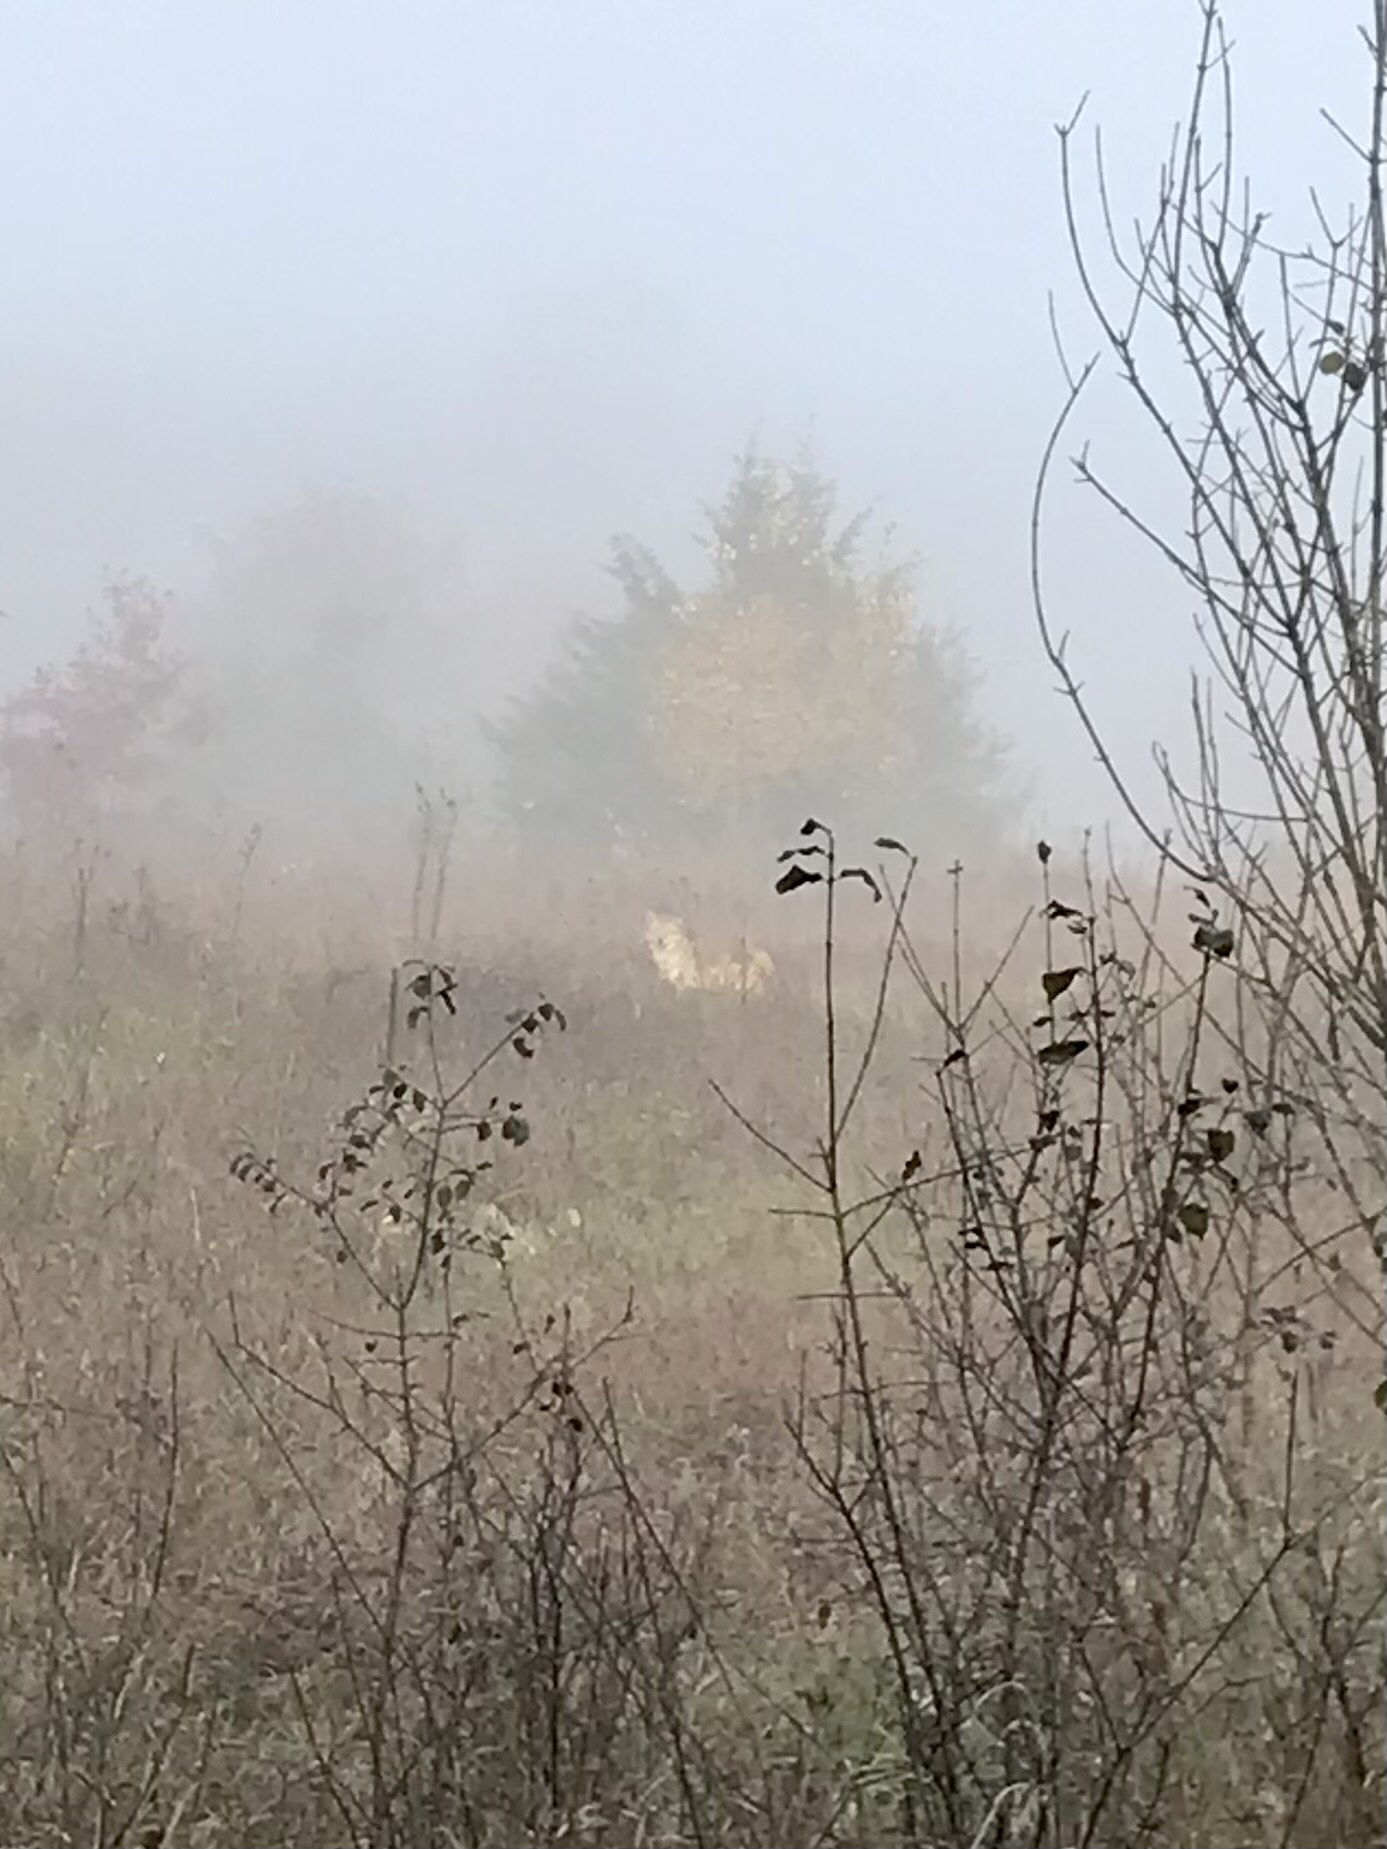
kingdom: Animalia
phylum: Chordata
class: Mammalia
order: Carnivora
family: Canidae
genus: Canis
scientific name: Canis latrans
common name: Coyote
